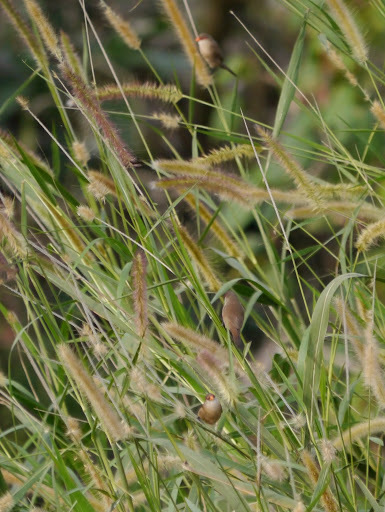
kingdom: Animalia
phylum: Chordata
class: Aves
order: Passeriformes
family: Estrildidae
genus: Estrilda
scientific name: Estrilda astrild
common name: Common waxbill
